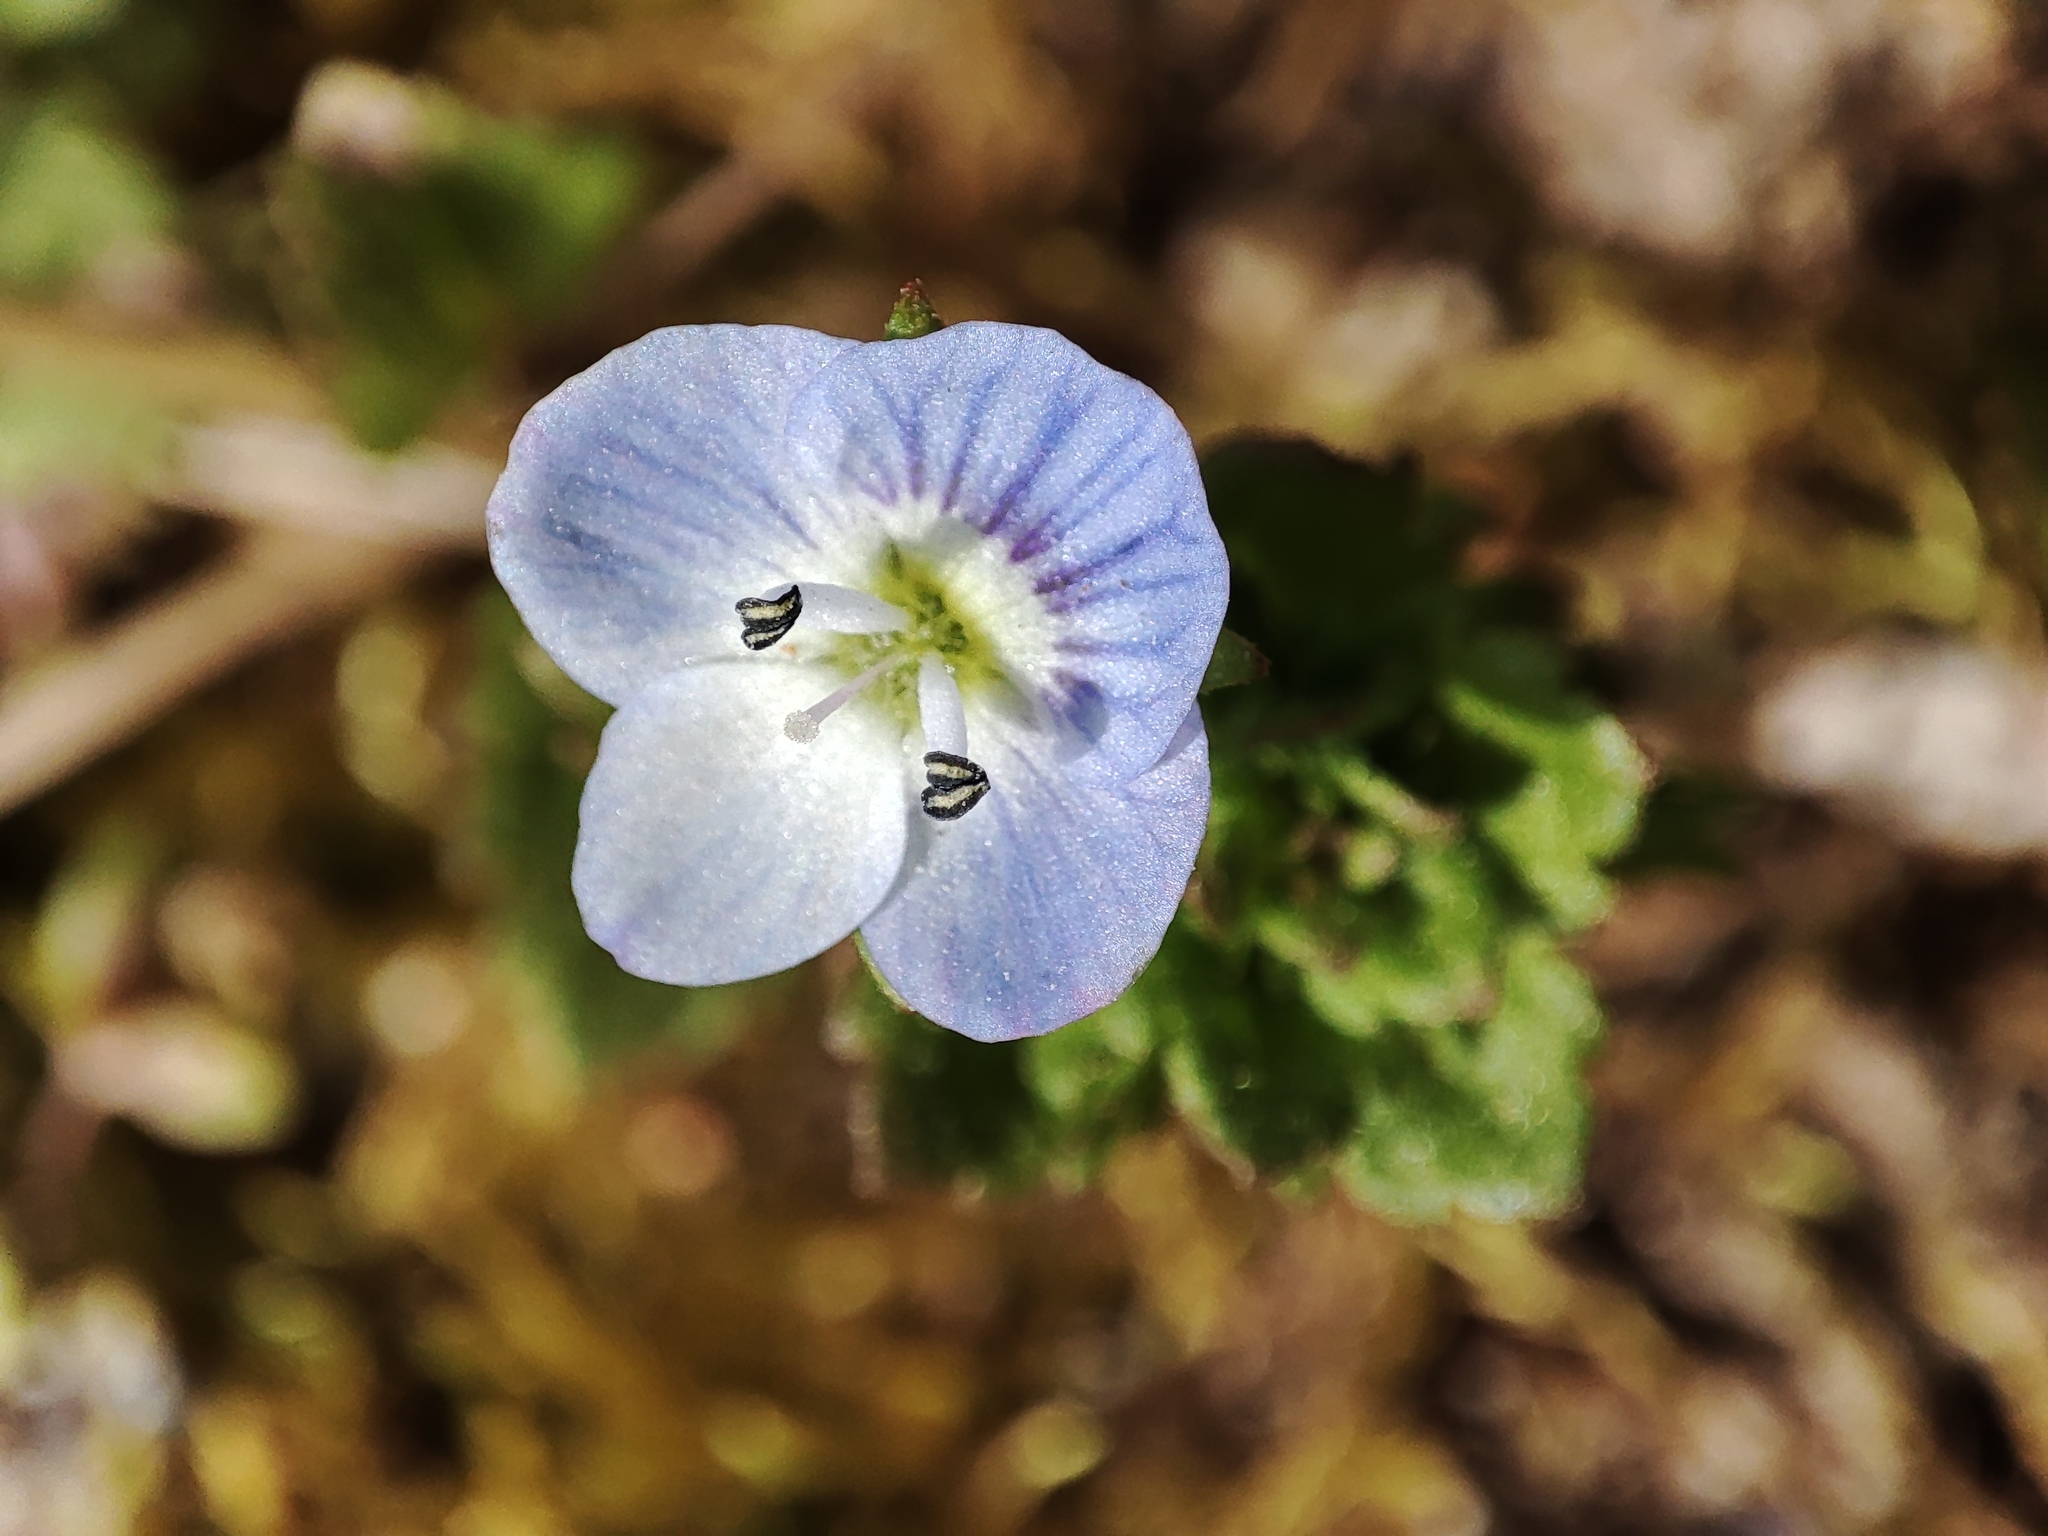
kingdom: Plantae
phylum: Tracheophyta
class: Magnoliopsida
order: Lamiales
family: Plantaginaceae
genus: Veronica
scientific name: Veronica persica
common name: Common field-speedwell
